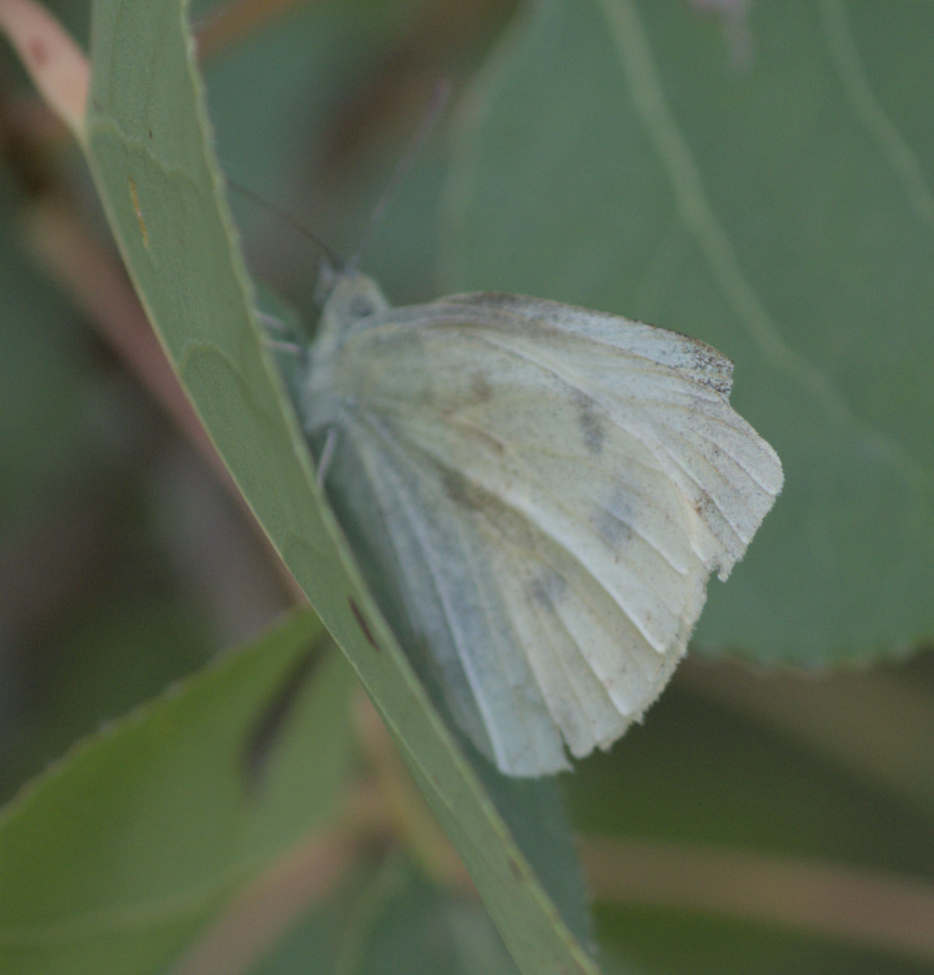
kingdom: Animalia
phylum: Arthropoda
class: Insecta
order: Lepidoptera
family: Pieridae
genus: Pieris
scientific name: Pieris rapae
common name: Small white
